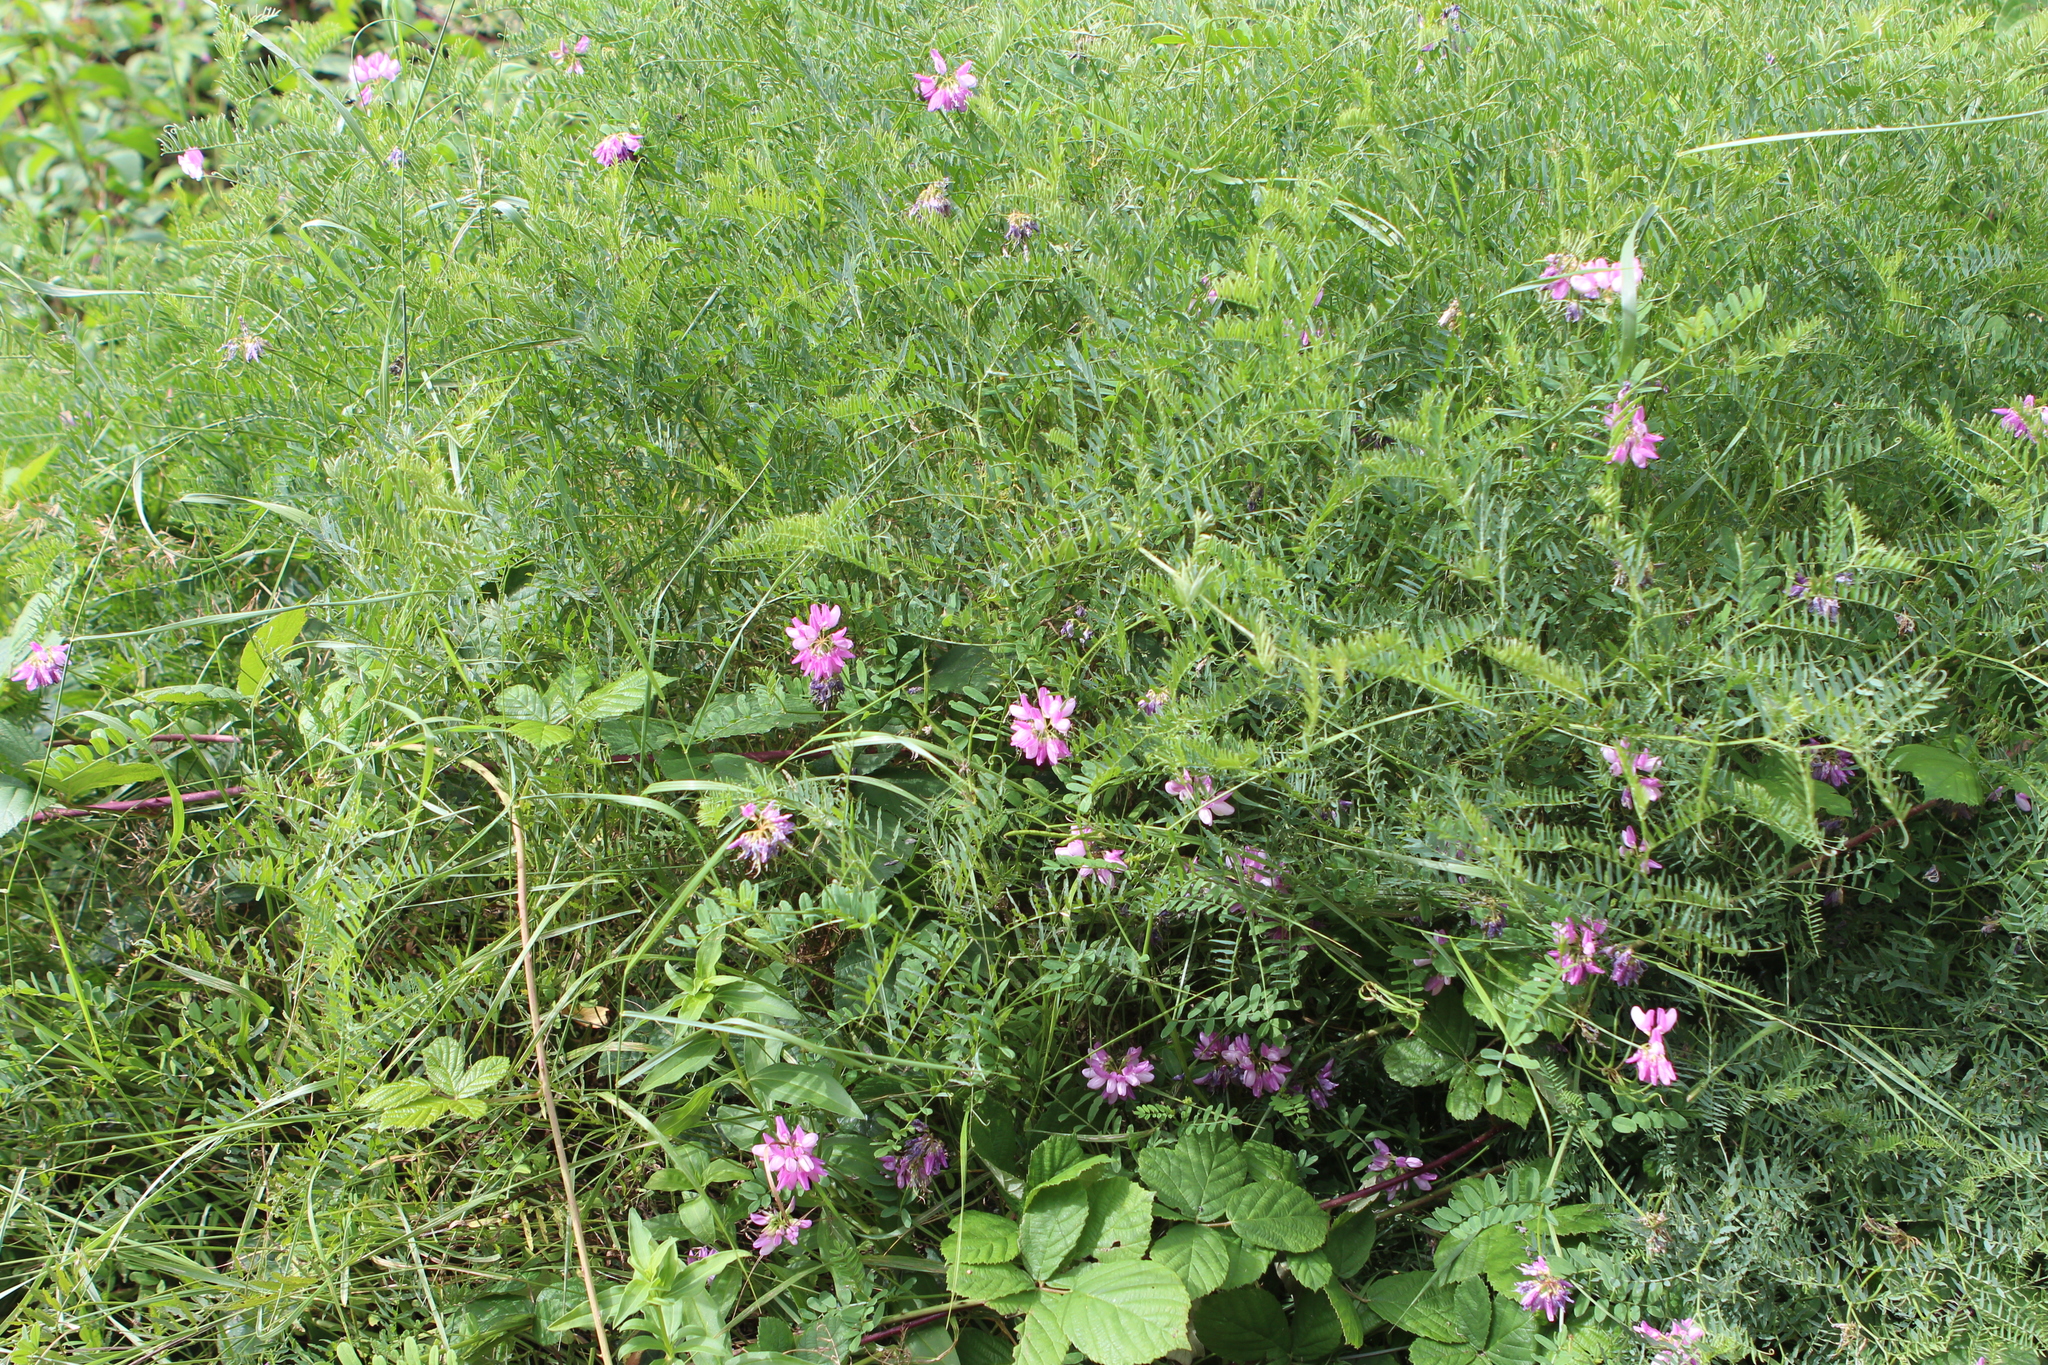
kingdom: Plantae
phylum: Tracheophyta
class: Magnoliopsida
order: Fabales
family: Fabaceae
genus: Coronilla
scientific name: Coronilla varia
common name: Crownvetch
